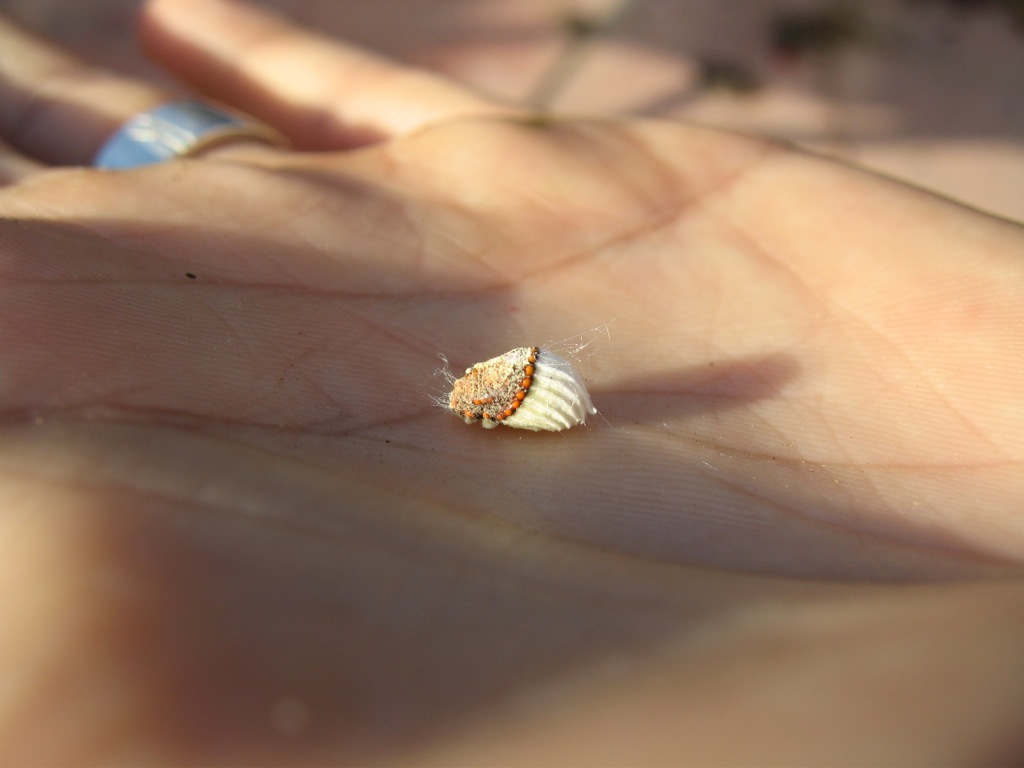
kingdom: Animalia
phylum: Arthropoda
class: Insecta
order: Hemiptera
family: Margarodidae
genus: Icerya
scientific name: Icerya purchasi
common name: Cottony cushion scale
